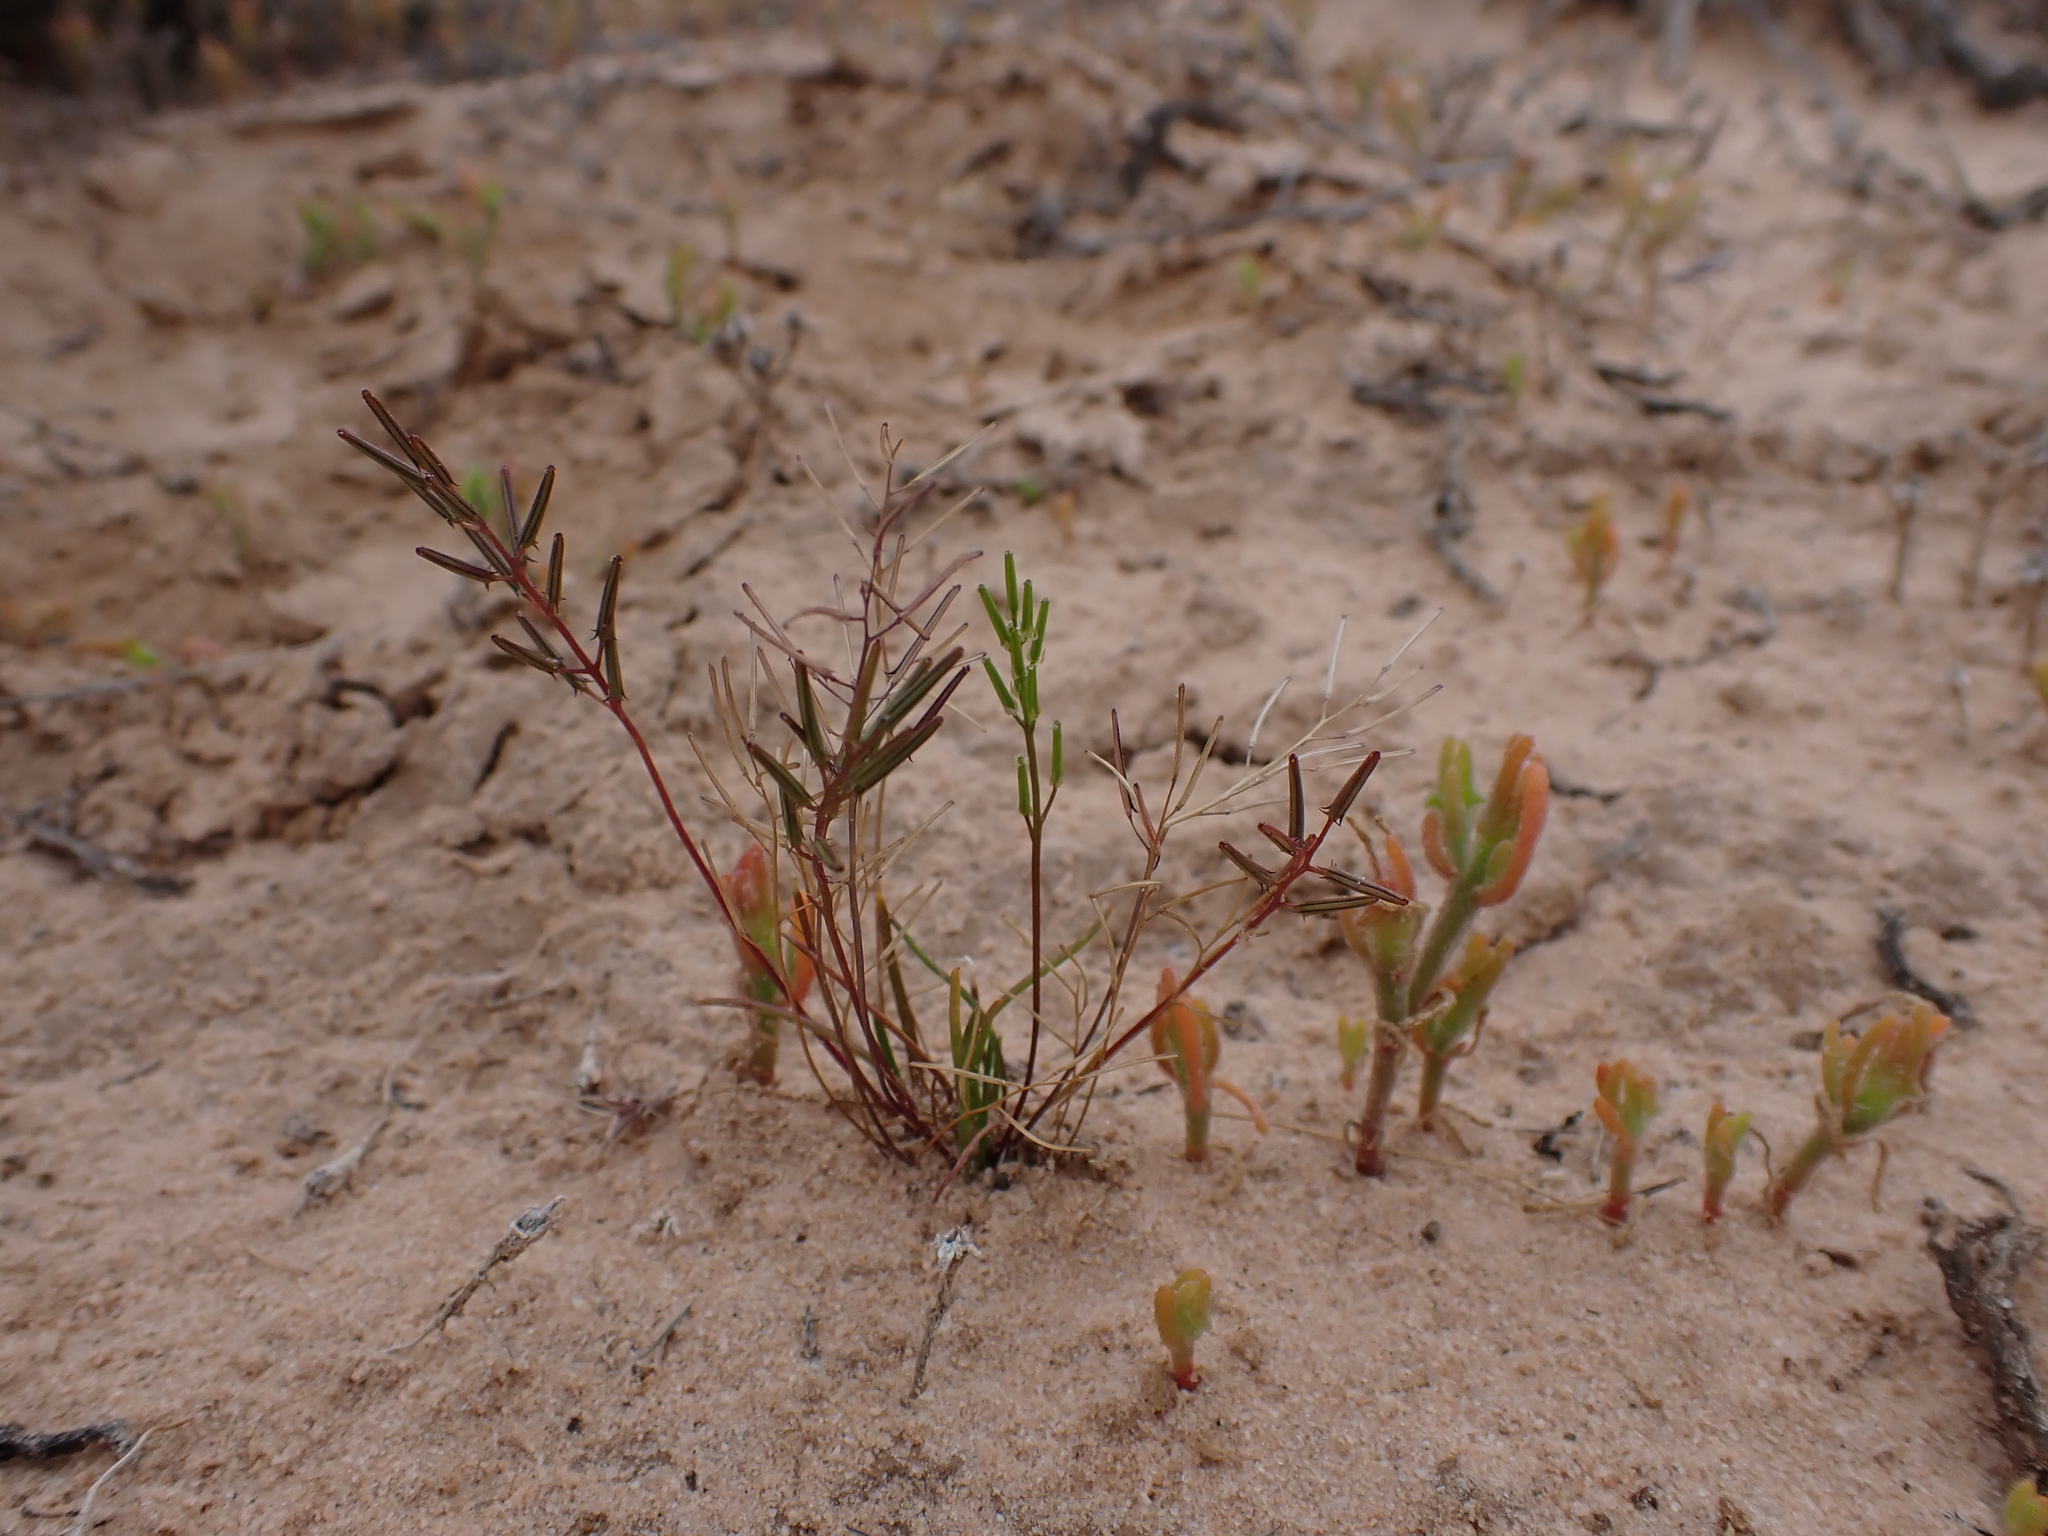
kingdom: Plantae
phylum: Tracheophyta
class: Liliopsida
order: Alismatales
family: Juncaginaceae
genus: Triglochin
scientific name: Triglochin nana
